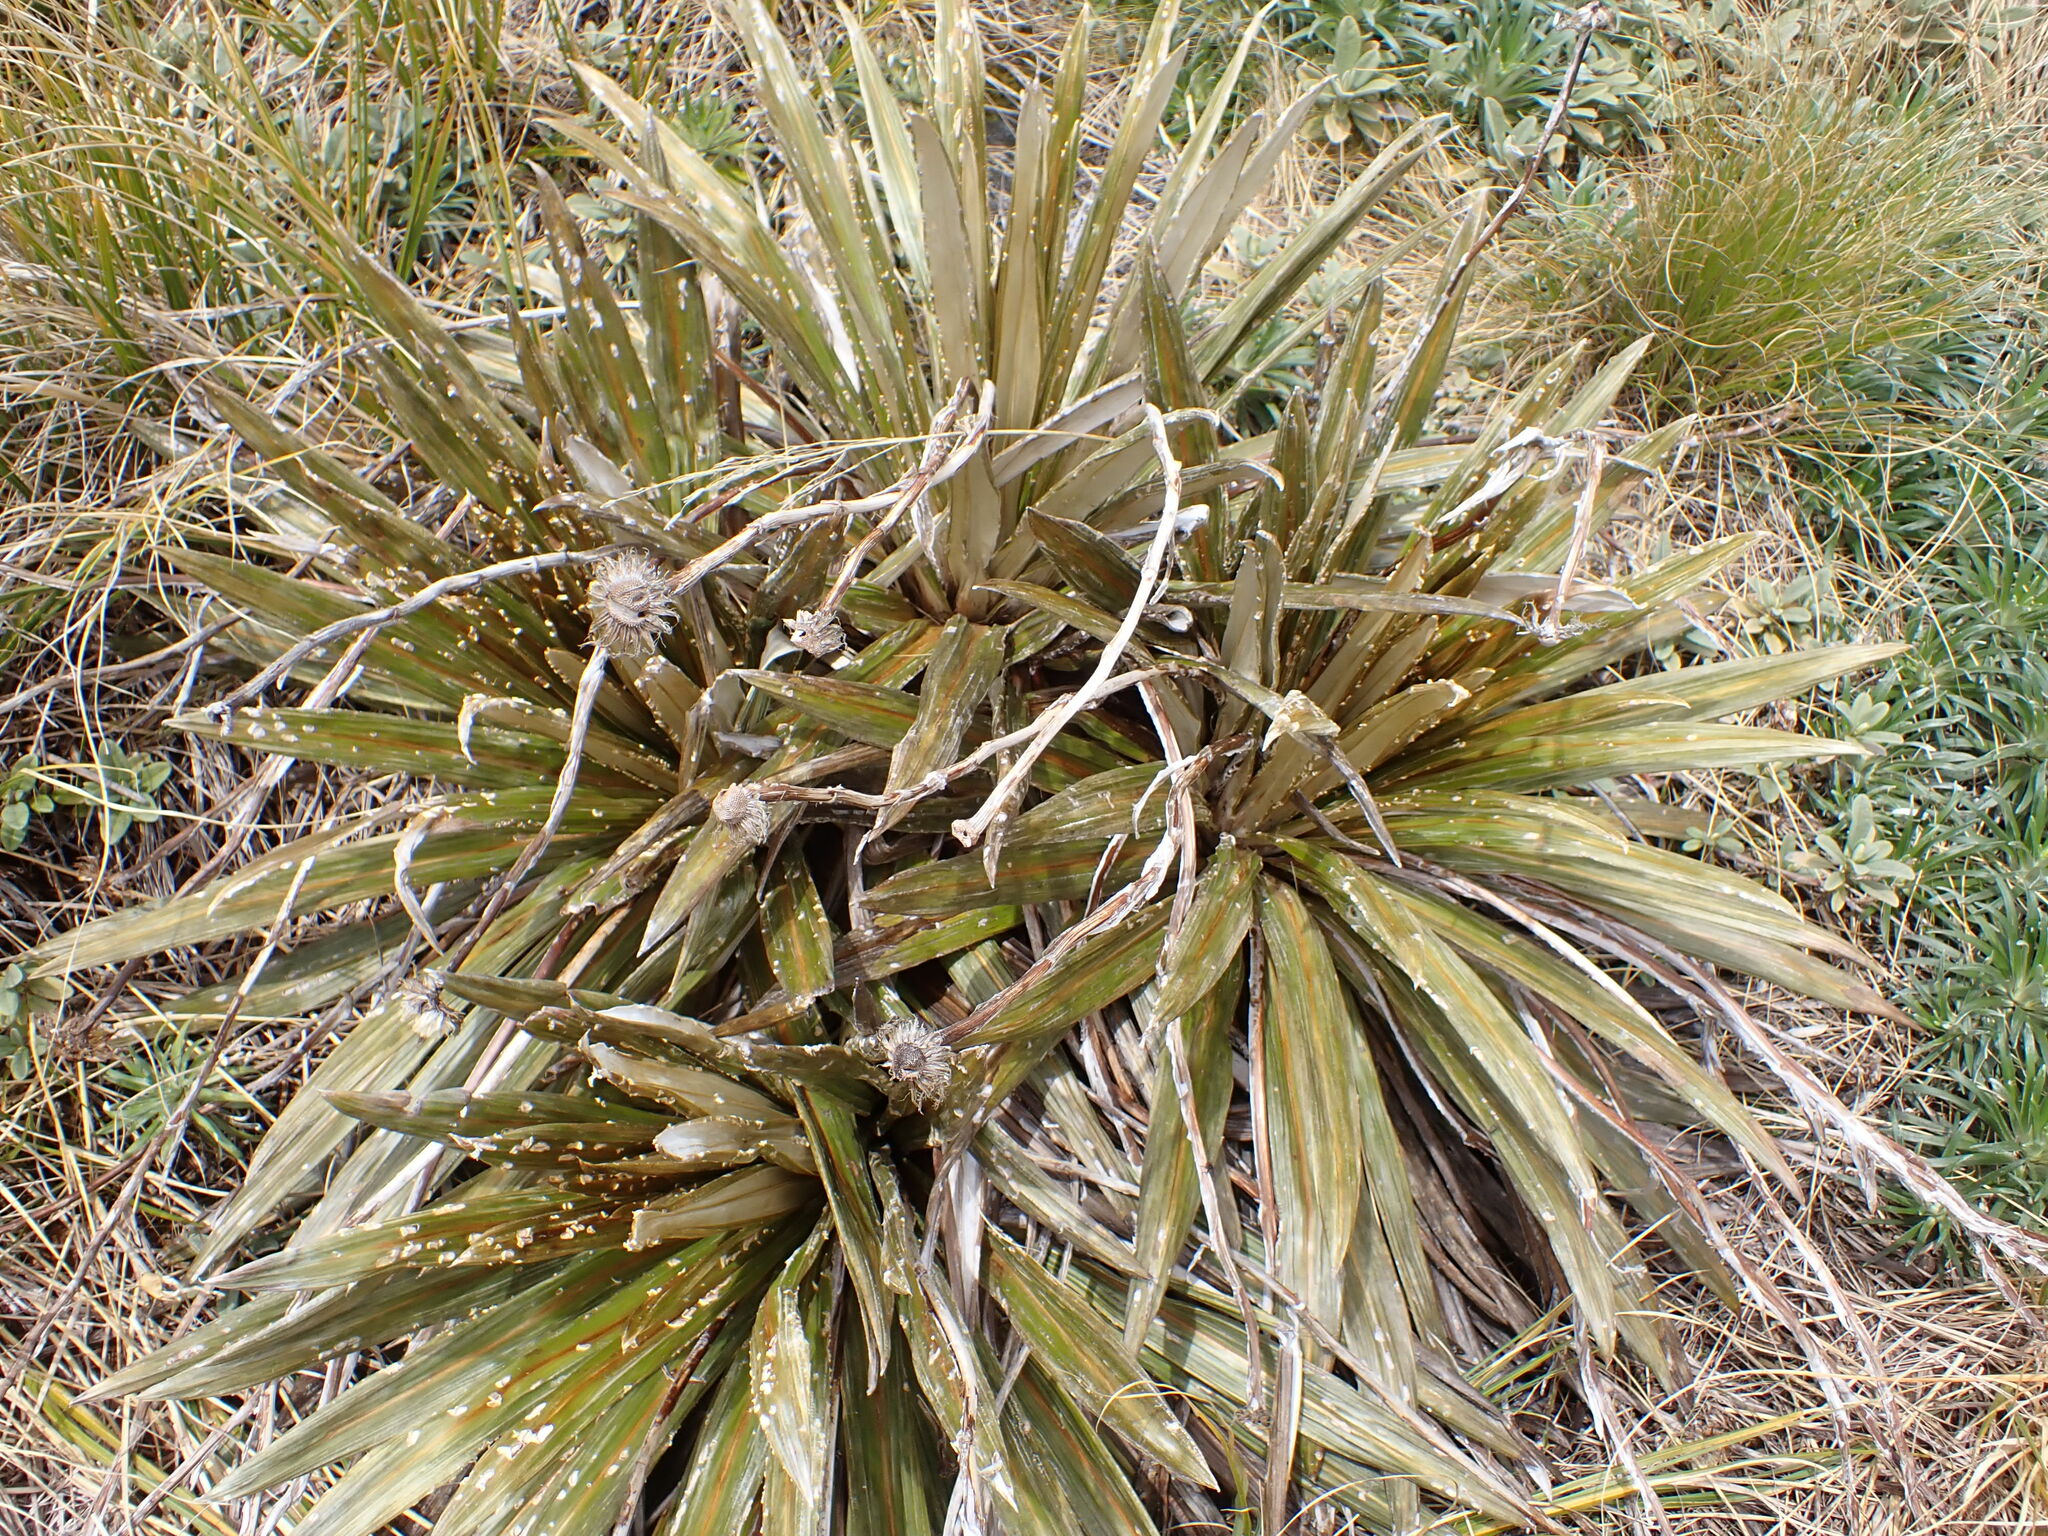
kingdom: Plantae
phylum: Tracheophyta
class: Magnoliopsida
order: Asterales
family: Asteraceae
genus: Celmisia
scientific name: Celmisia coriacea
